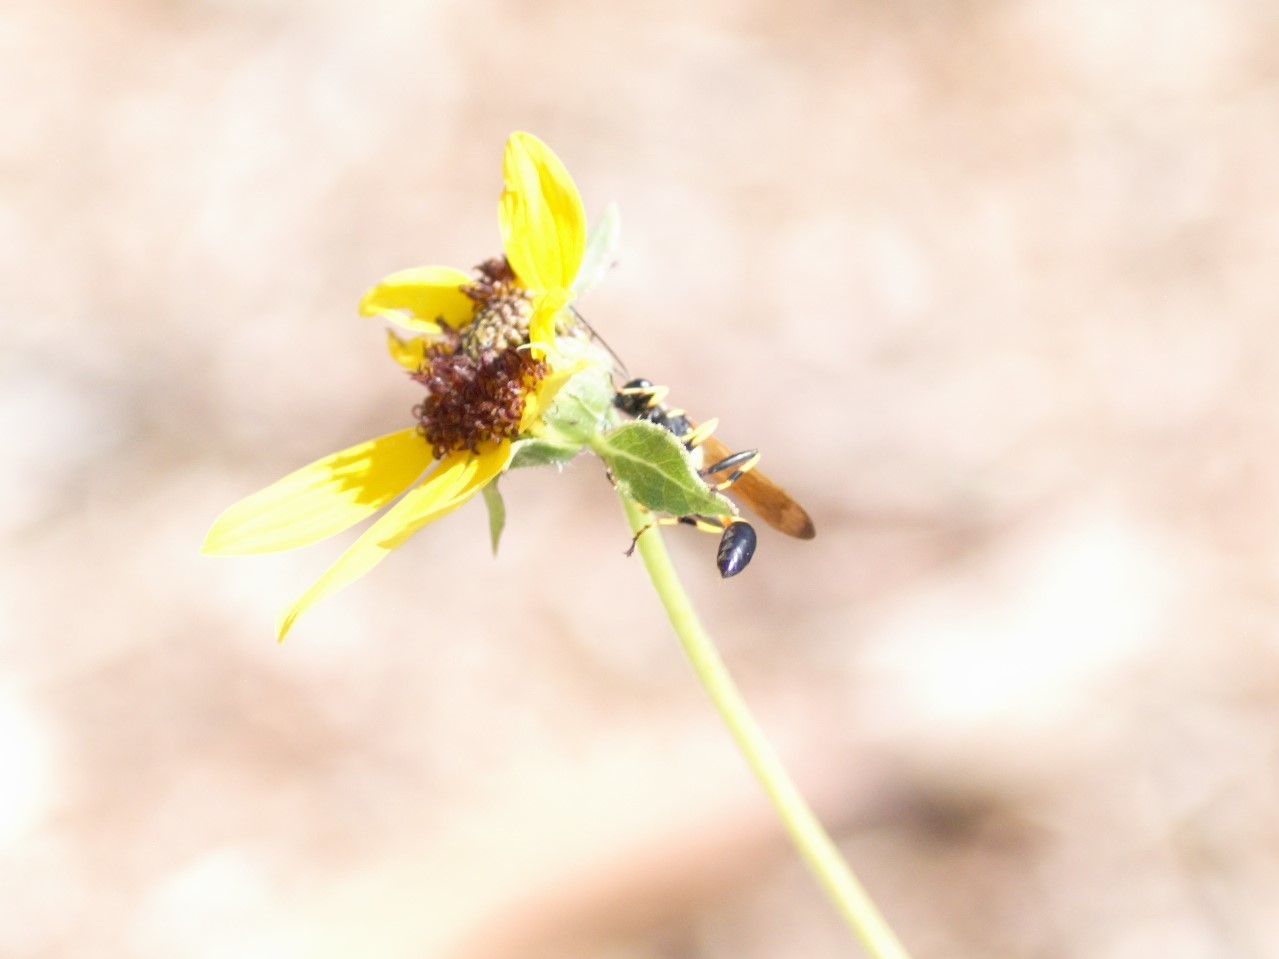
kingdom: Animalia
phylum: Arthropoda
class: Insecta
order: Hymenoptera
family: Sphecidae
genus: Sceliphron
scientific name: Sceliphron caementarium
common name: Mud dauber
